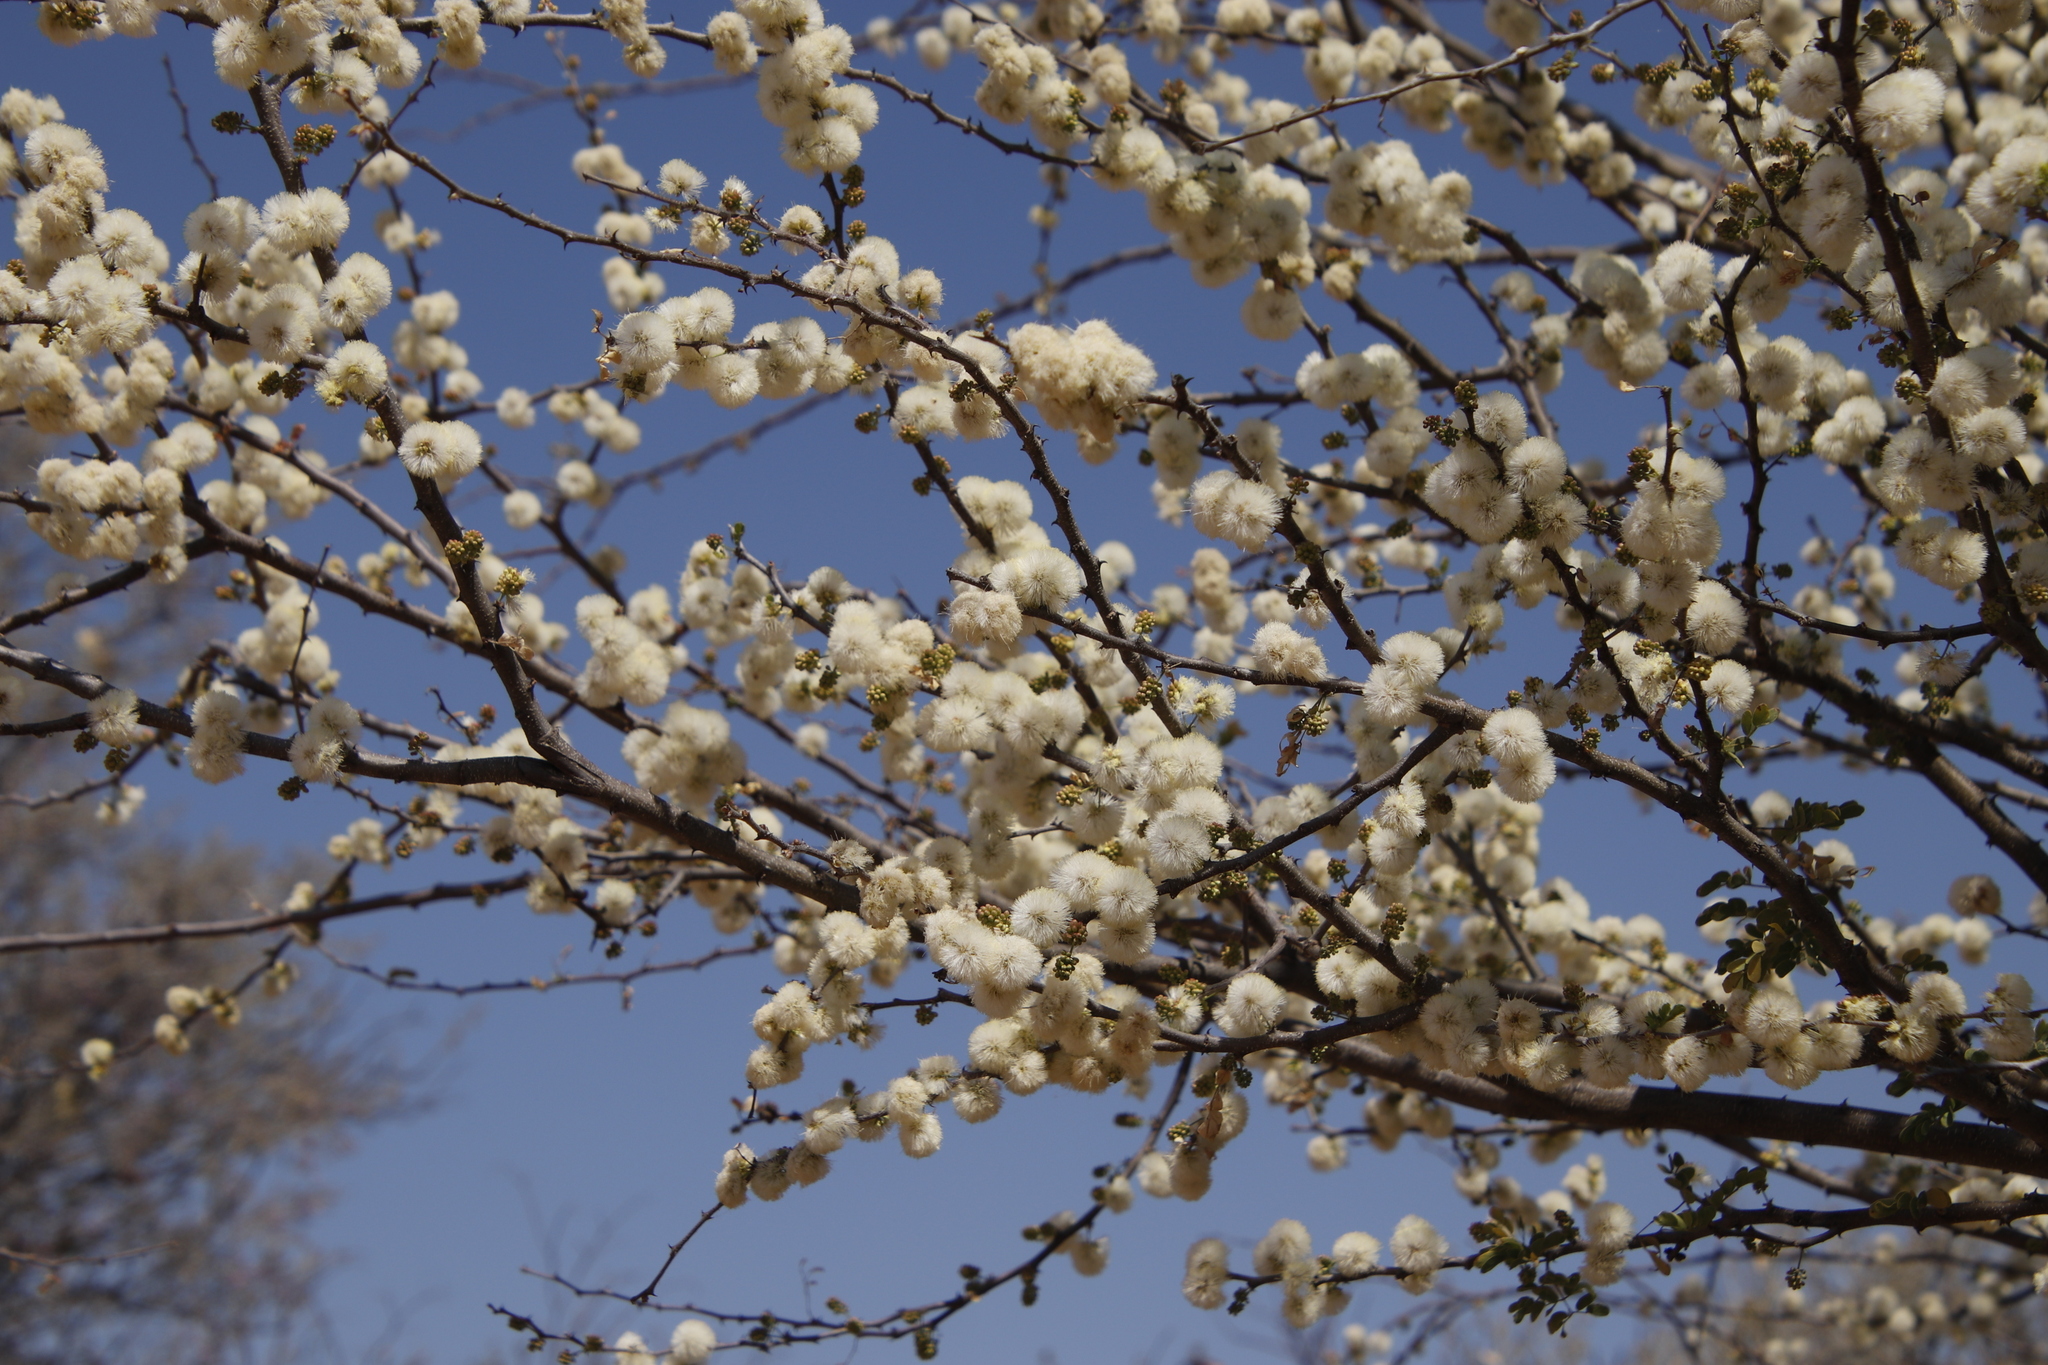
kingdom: Plantae
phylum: Tracheophyta
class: Magnoliopsida
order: Fabales
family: Fabaceae
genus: Senegalia
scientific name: Senegalia mellifera
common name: Hookthorn
